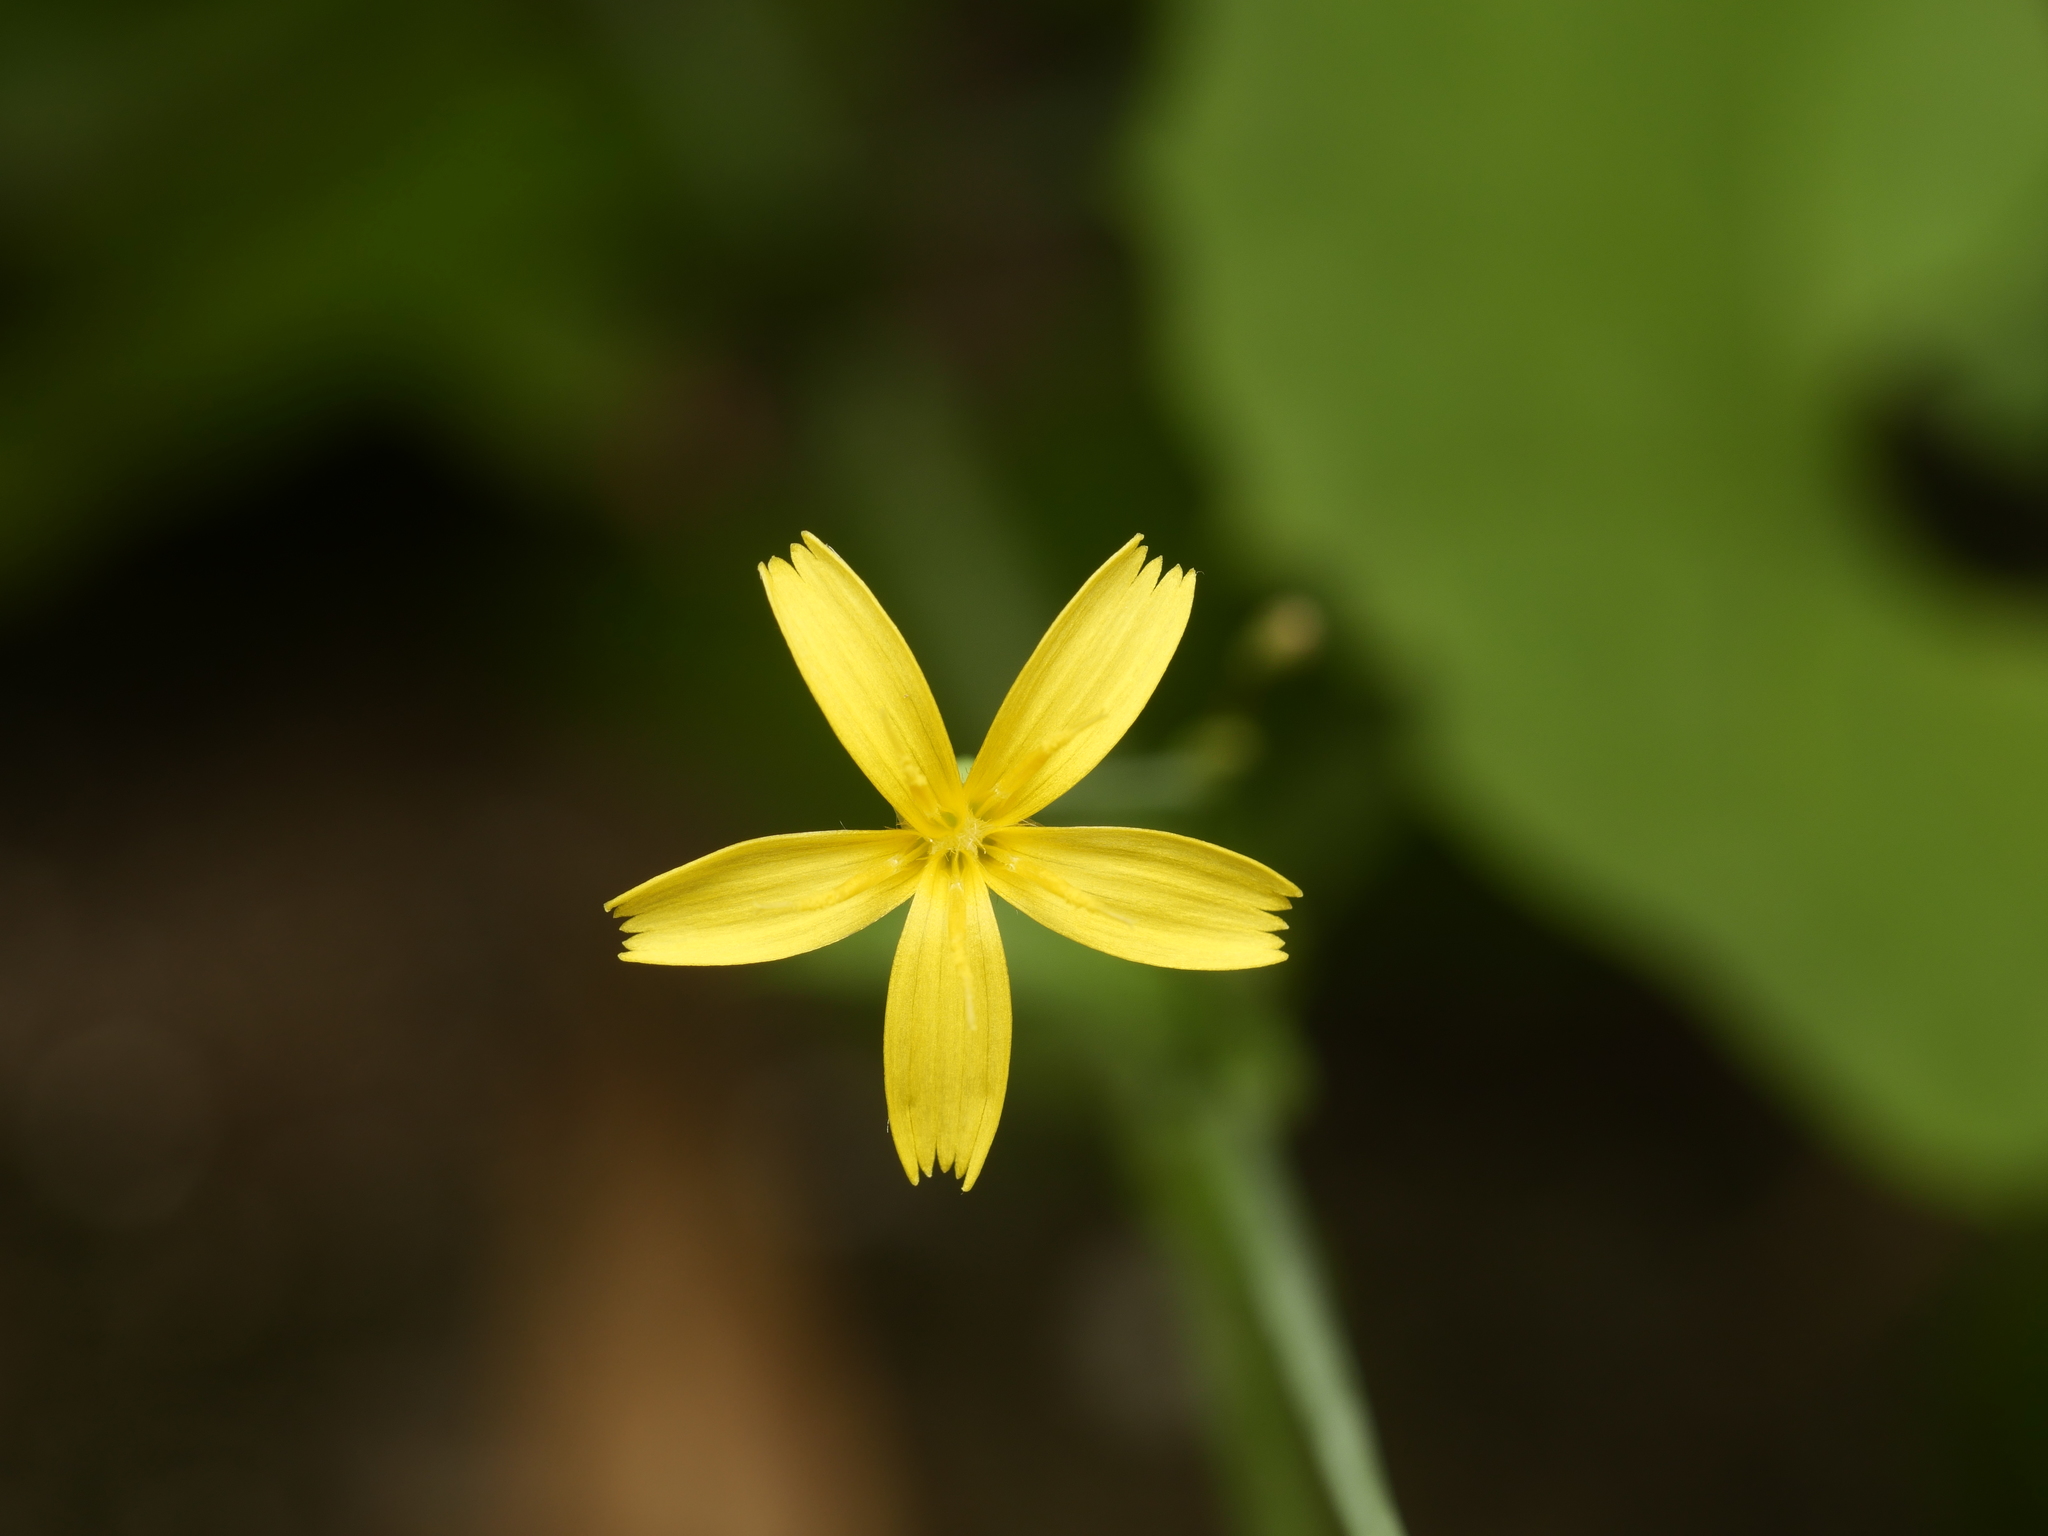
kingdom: Plantae
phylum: Tracheophyta
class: Magnoliopsida
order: Asterales
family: Asteraceae
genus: Mycelis
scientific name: Mycelis muralis
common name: Wall lettuce
